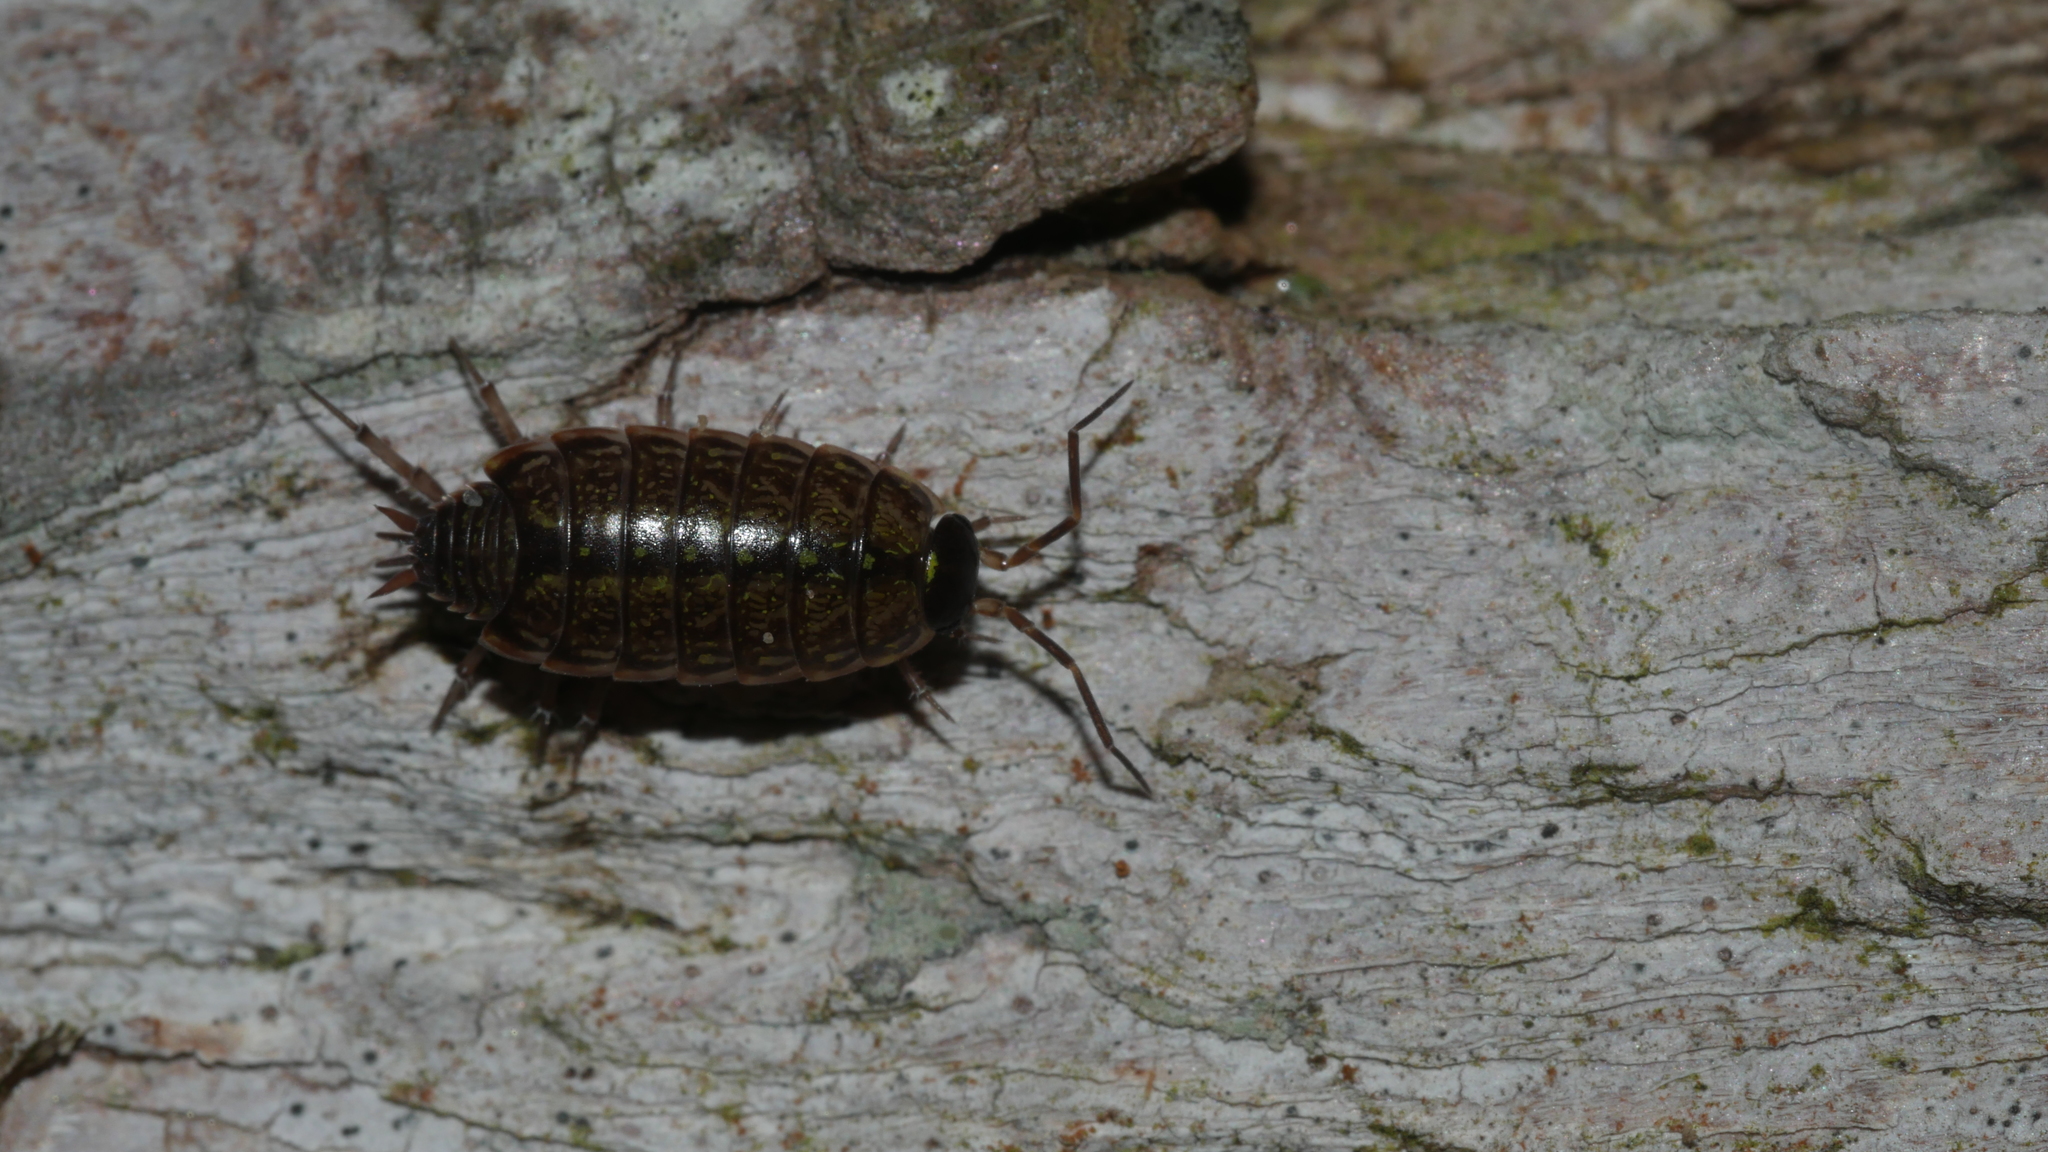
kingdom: Animalia
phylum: Arthropoda
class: Malacostraca
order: Isopoda
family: Philosciidae
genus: Philoscia
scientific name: Philoscia muscorum
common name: Common striped woodlouse
